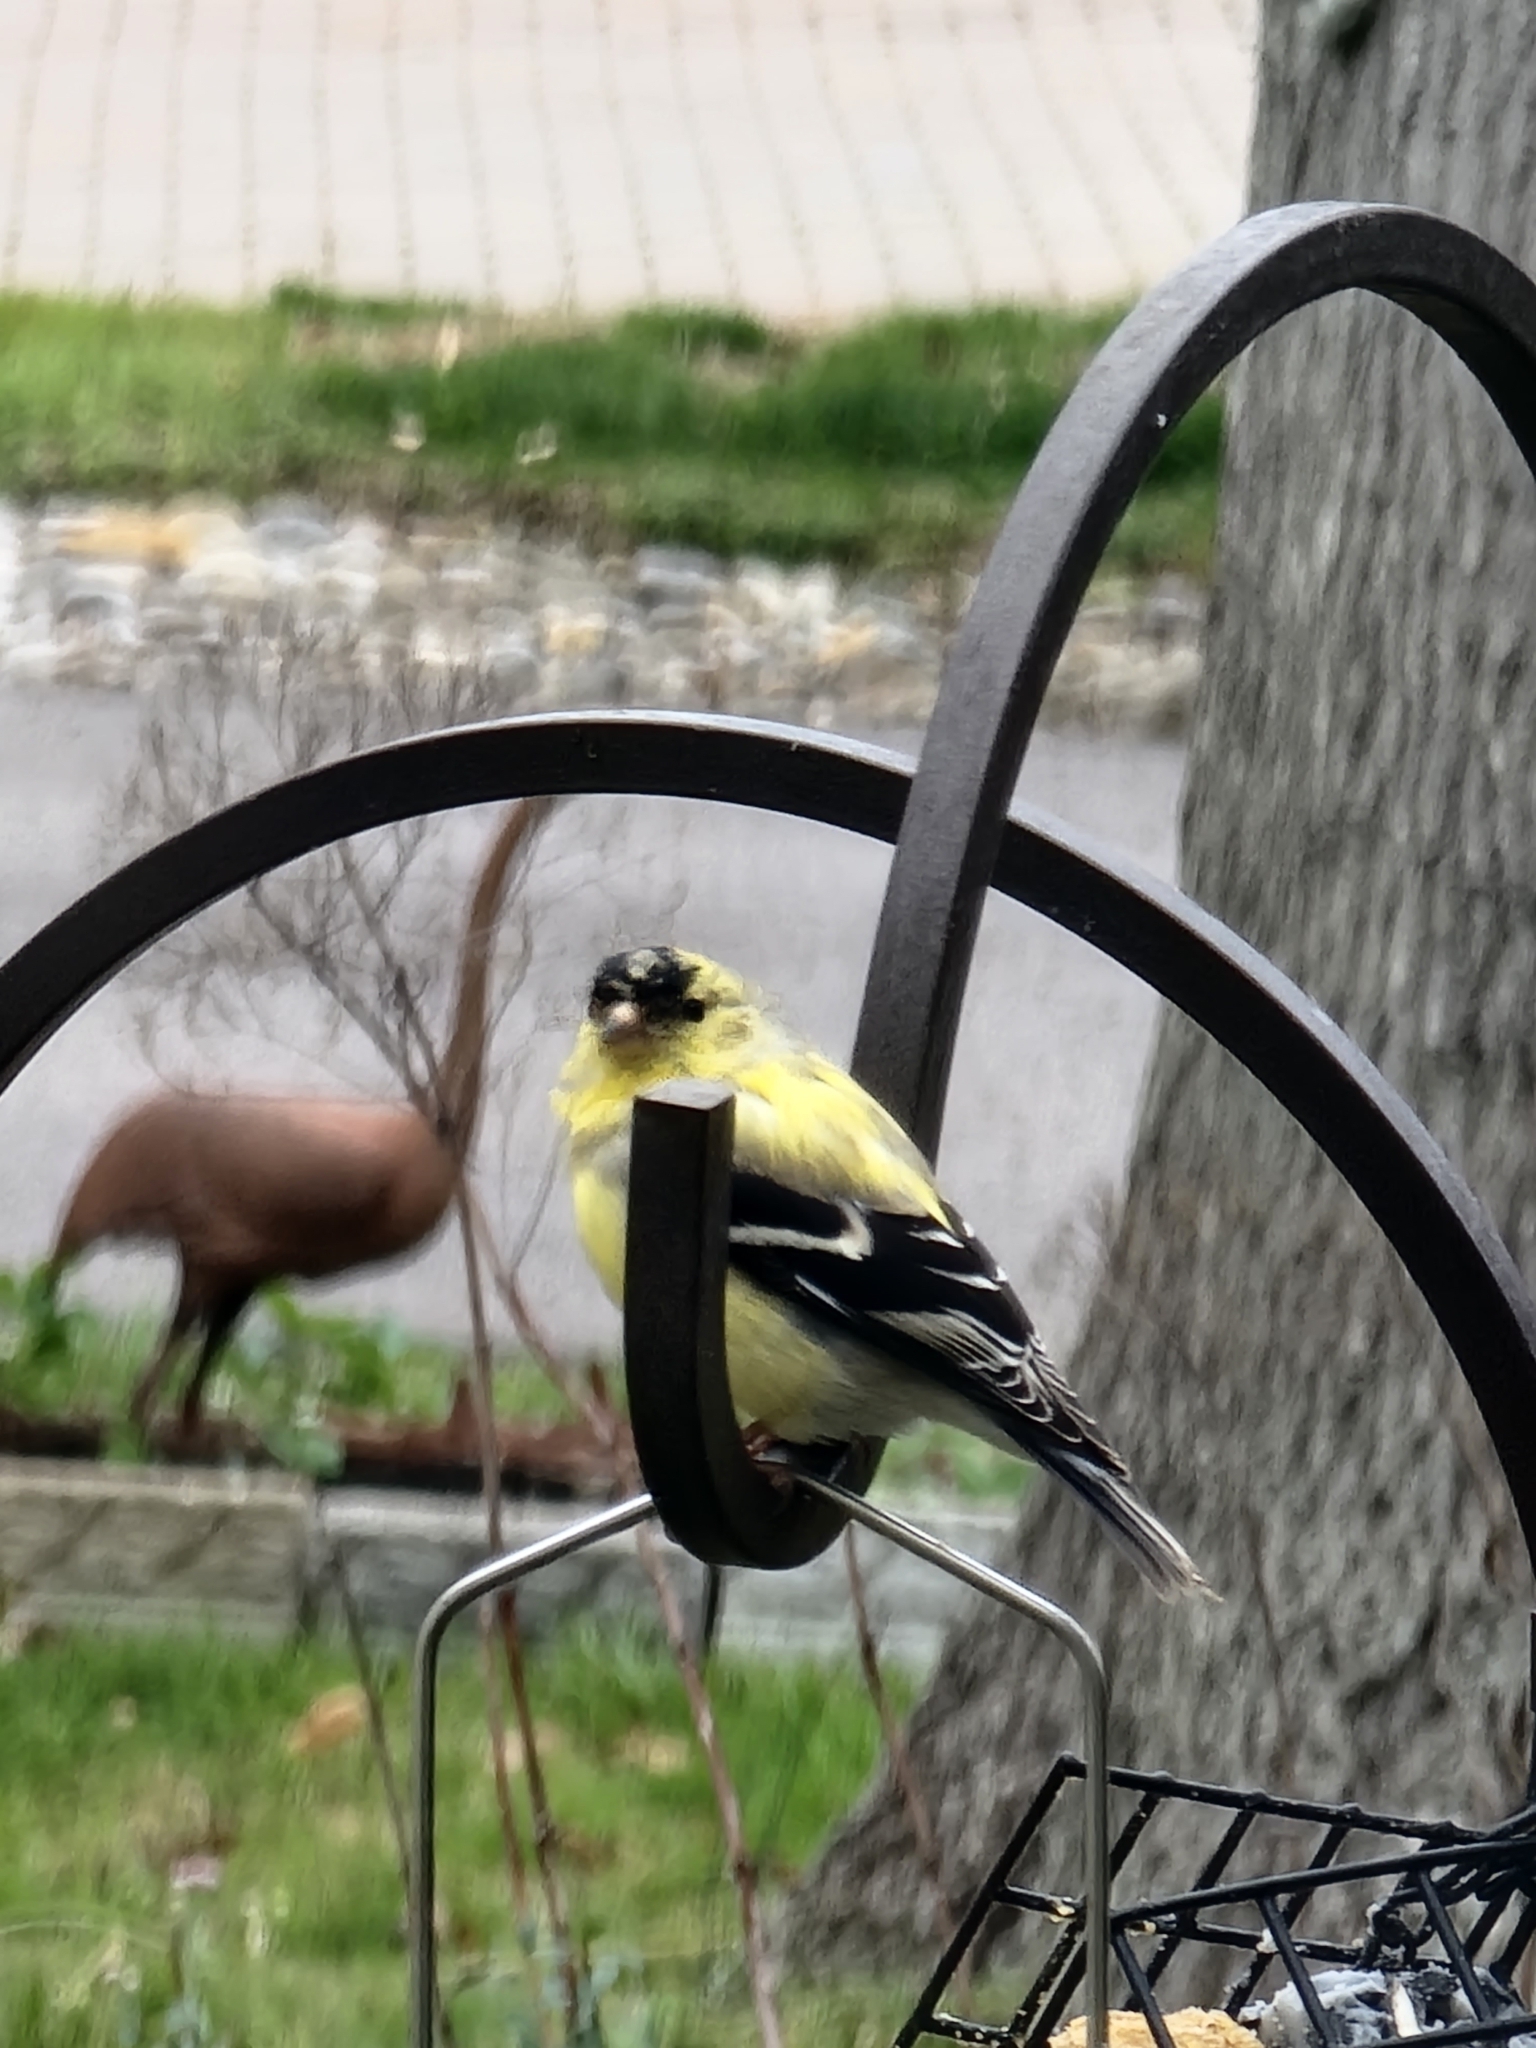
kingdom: Animalia
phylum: Chordata
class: Aves
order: Passeriformes
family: Fringillidae
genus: Spinus
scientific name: Spinus tristis
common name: American goldfinch
